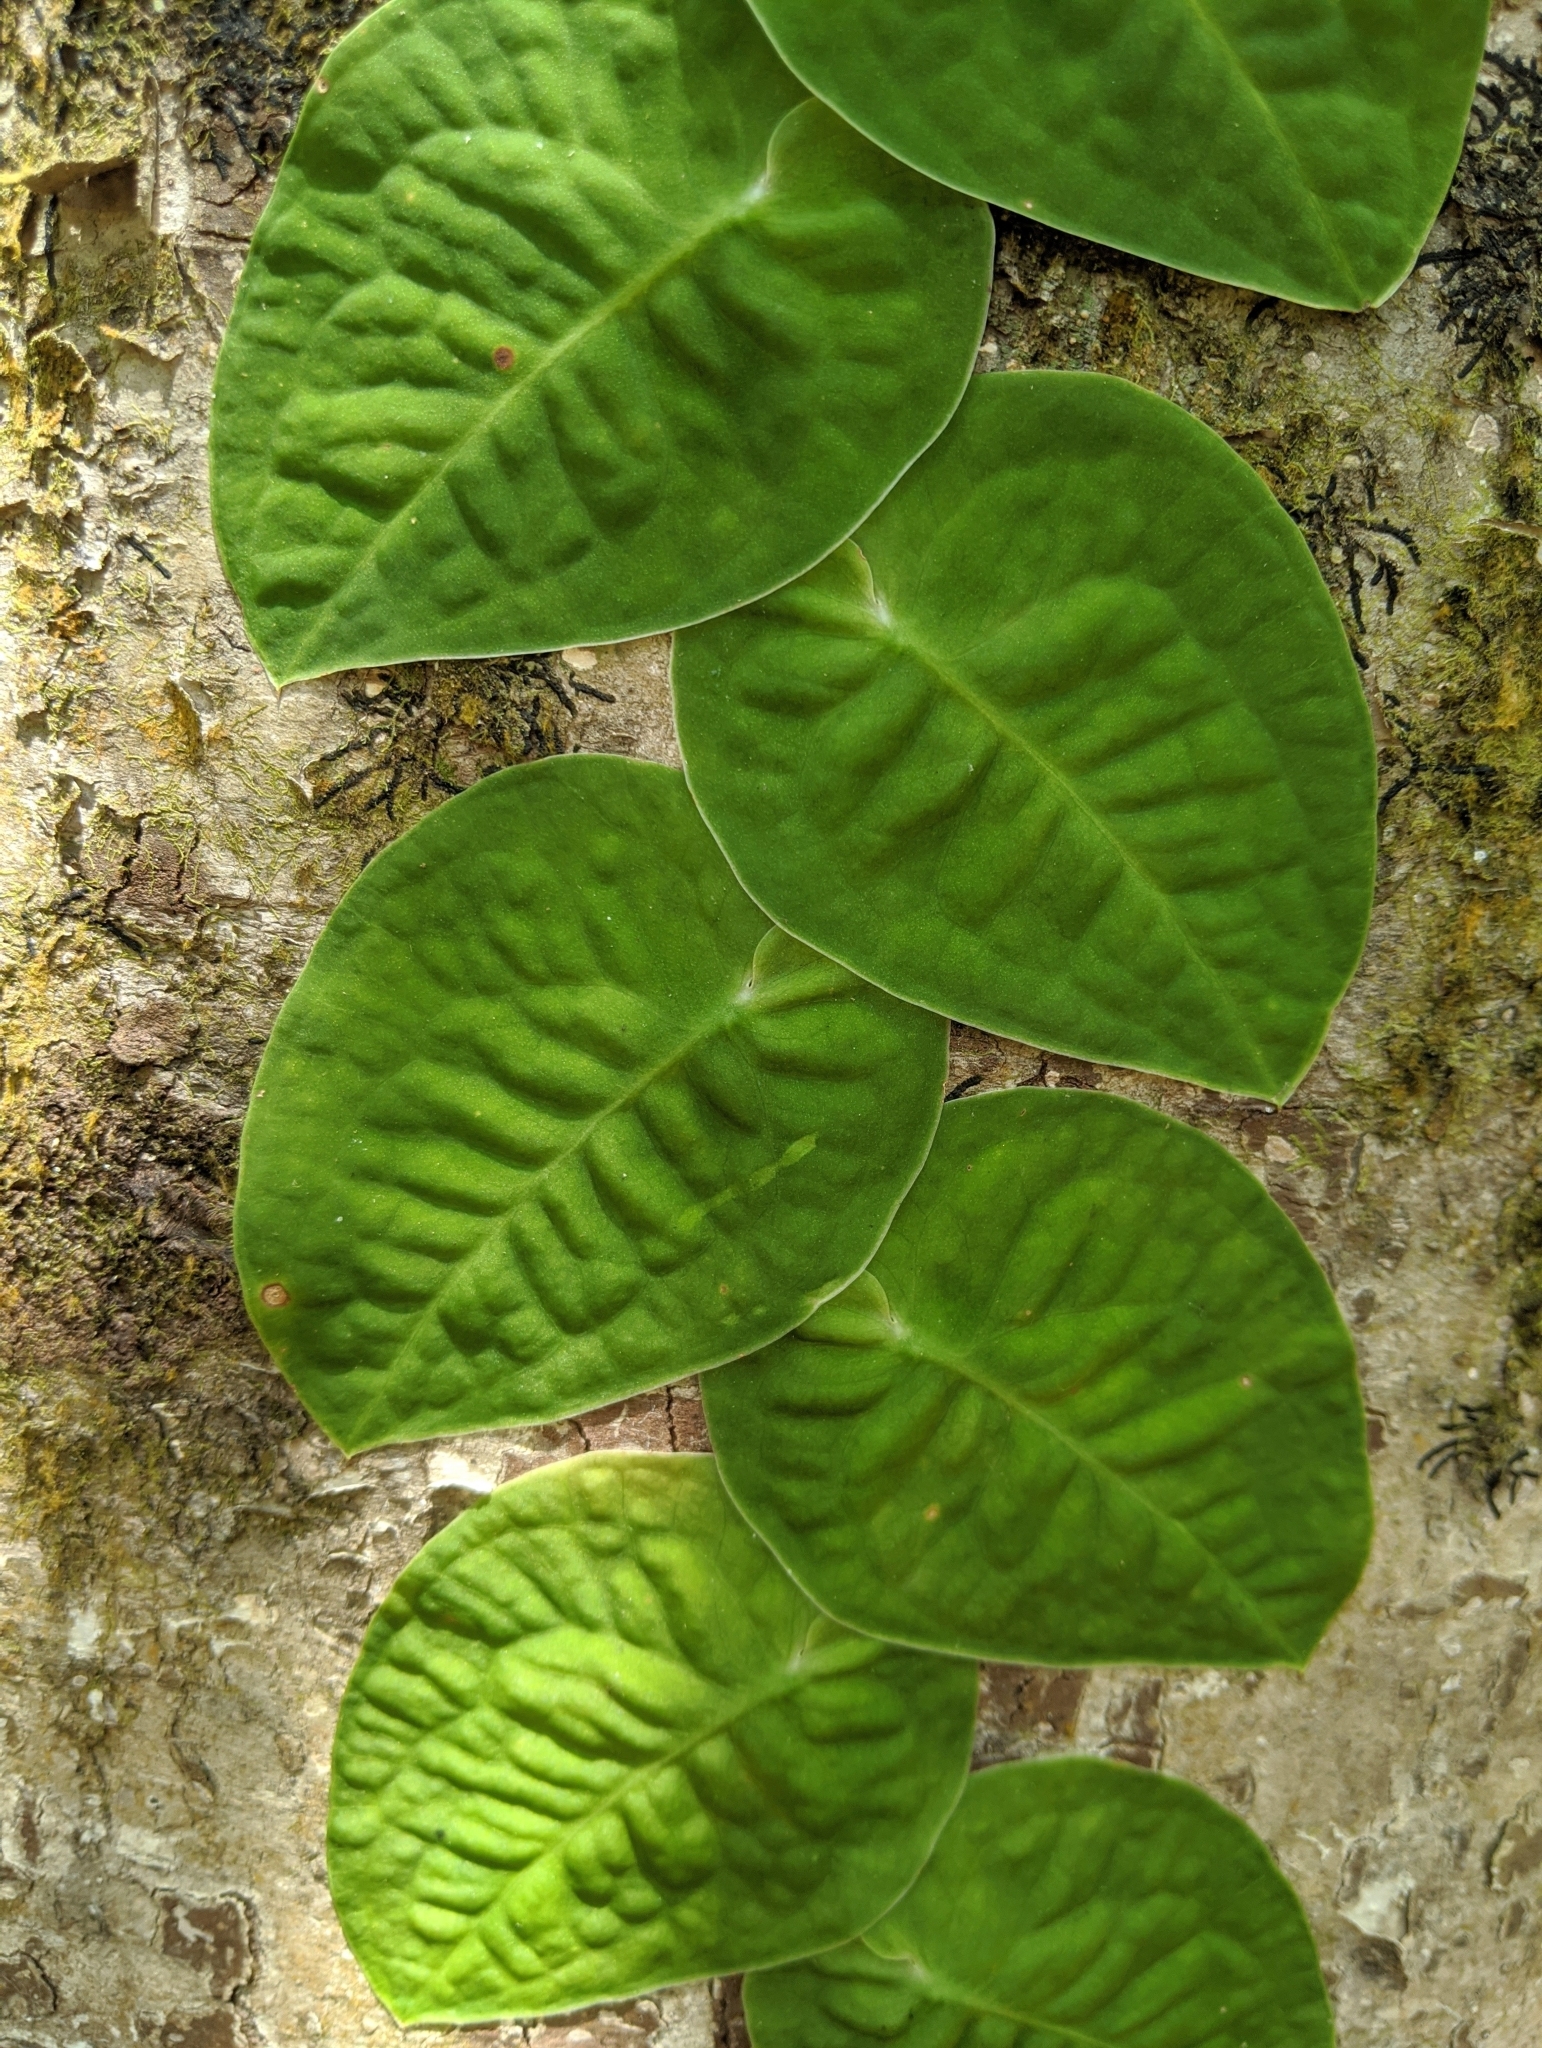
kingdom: Plantae
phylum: Tracheophyta
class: Liliopsida
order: Alismatales
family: Araceae
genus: Monstera
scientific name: Monstera dubia
